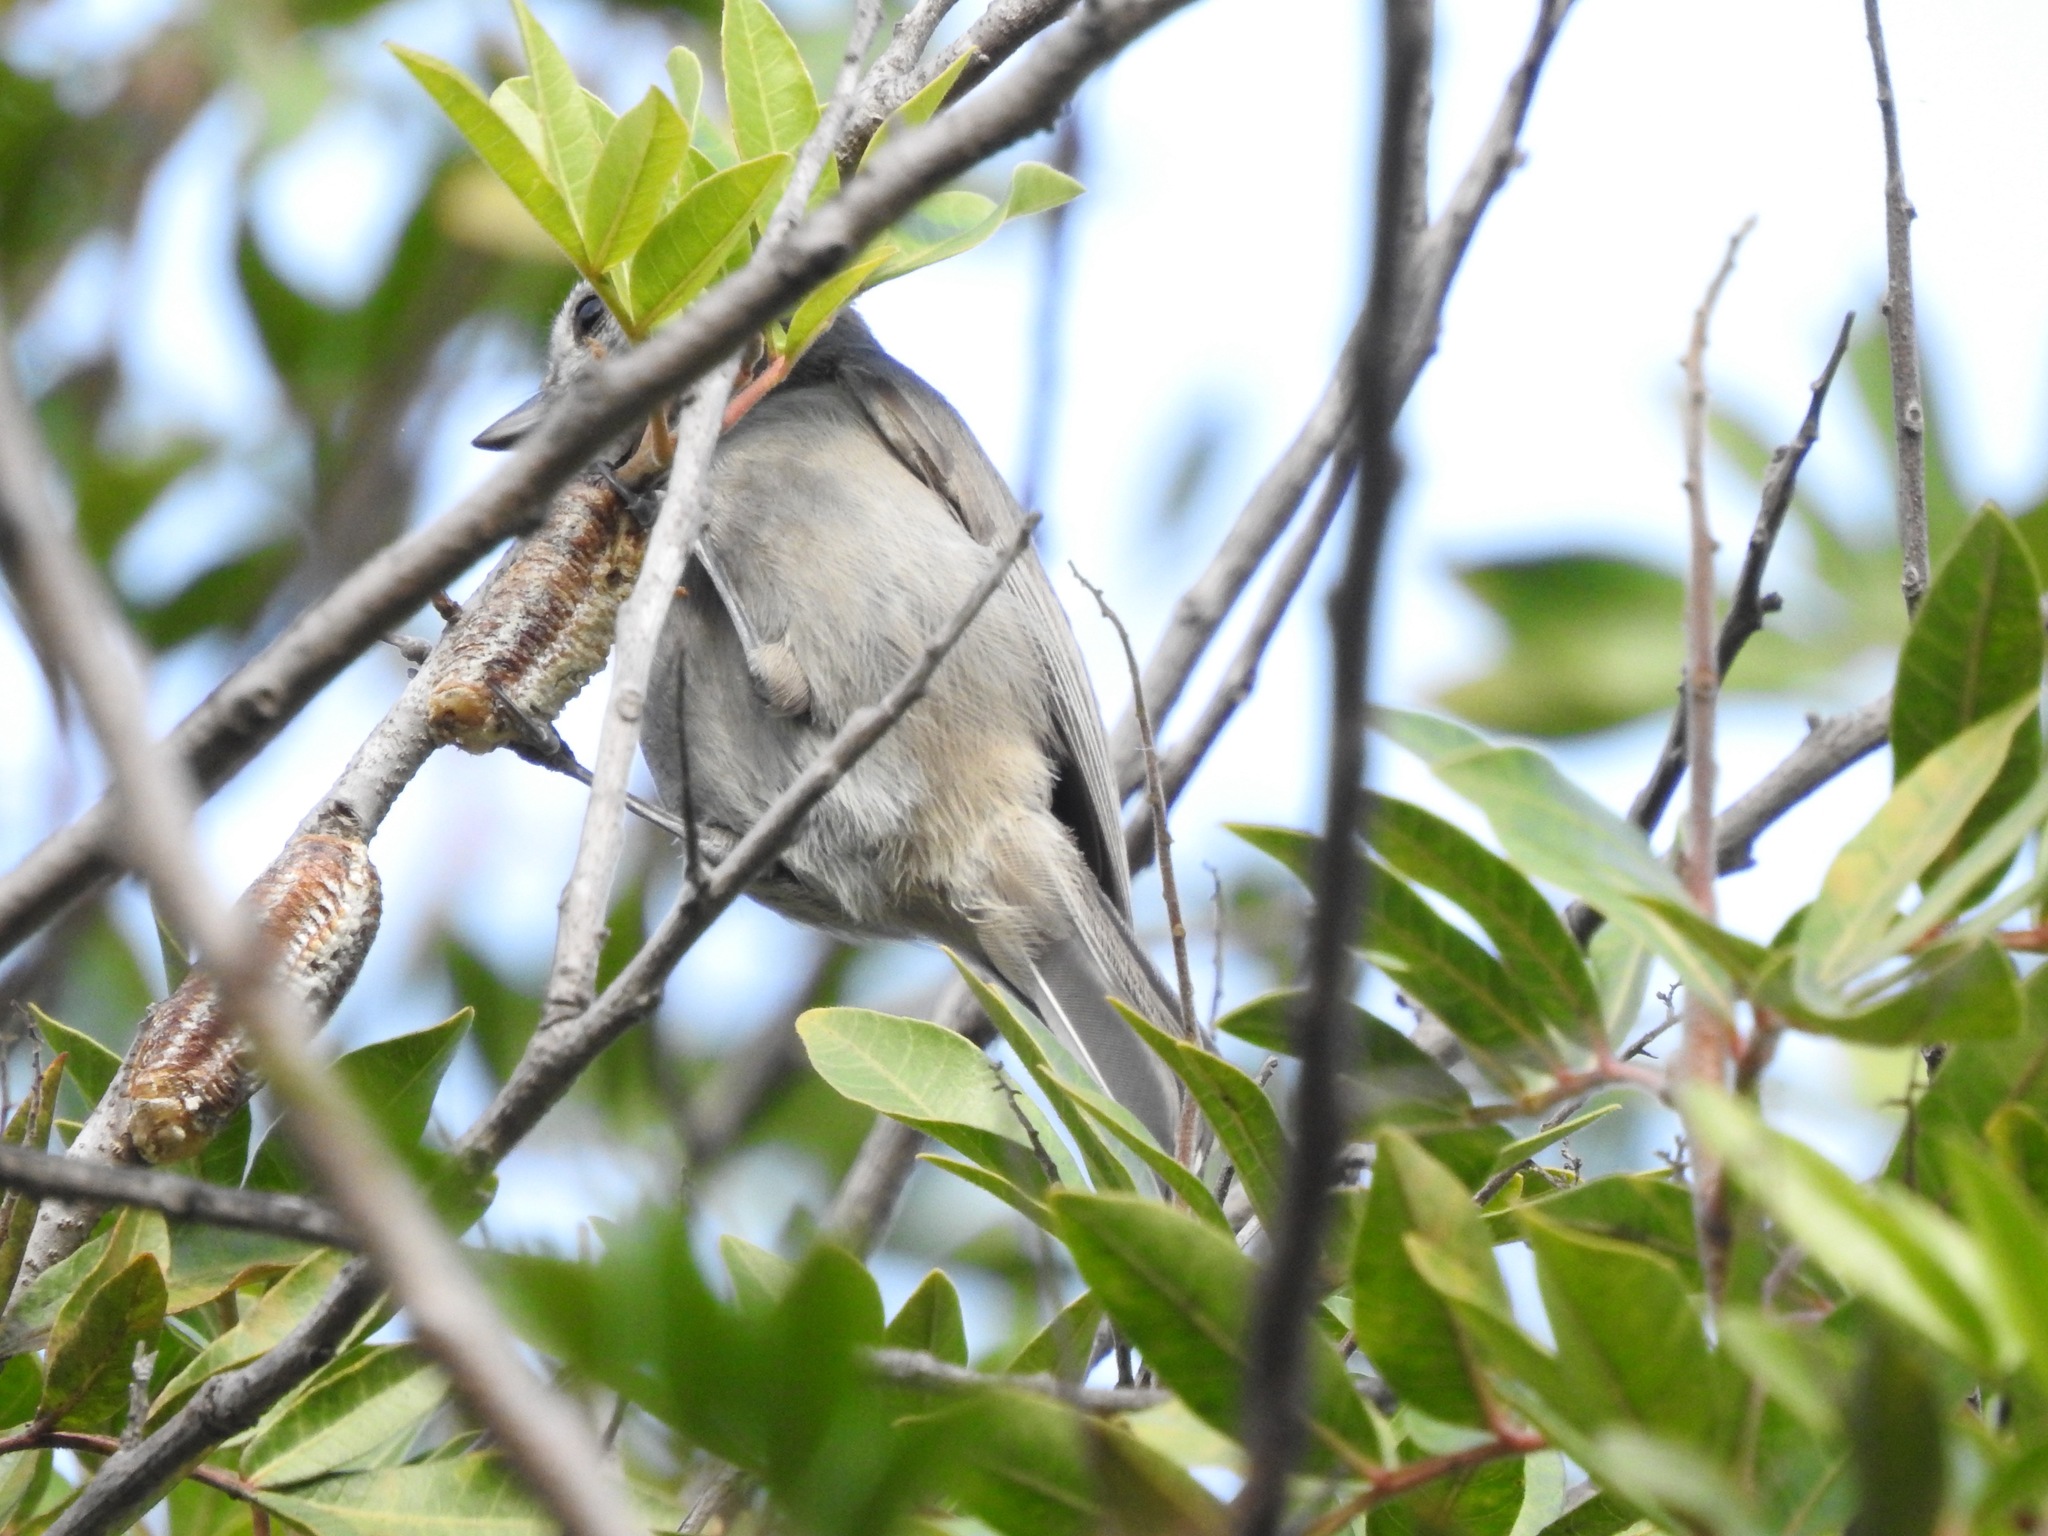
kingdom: Animalia
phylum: Chordata
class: Aves
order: Passeriformes
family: Paridae
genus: Baeolophus
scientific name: Baeolophus inornatus
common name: Oak titmouse
